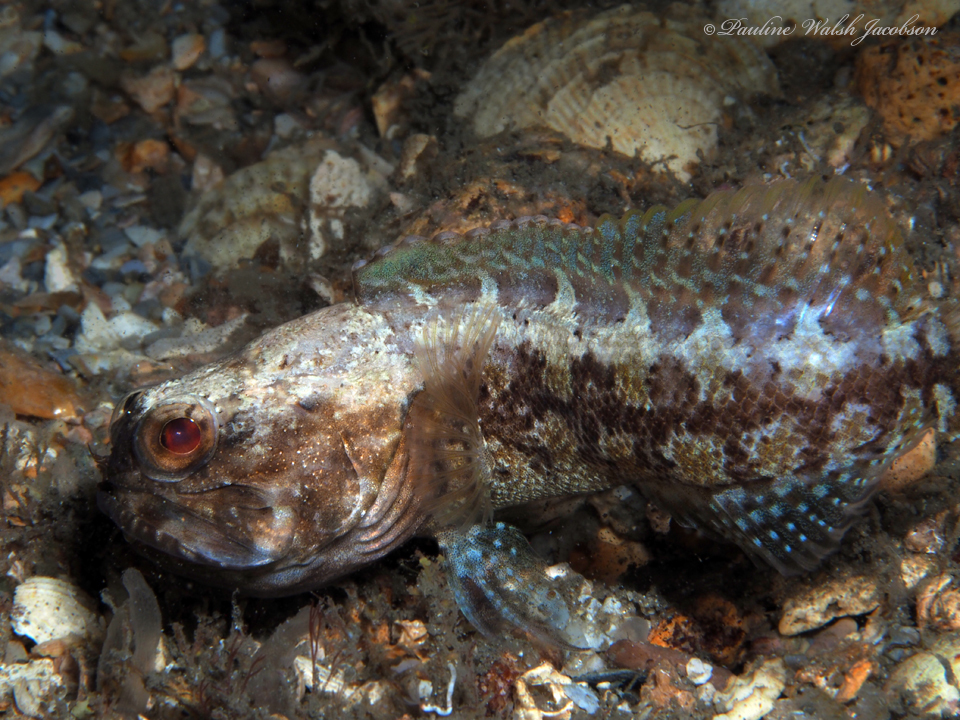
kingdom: Animalia
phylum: Chordata
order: Perciformes
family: Opistognathidae
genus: Opistognathus
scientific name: Opistognathus whitehursti
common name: Dusky jawfish
